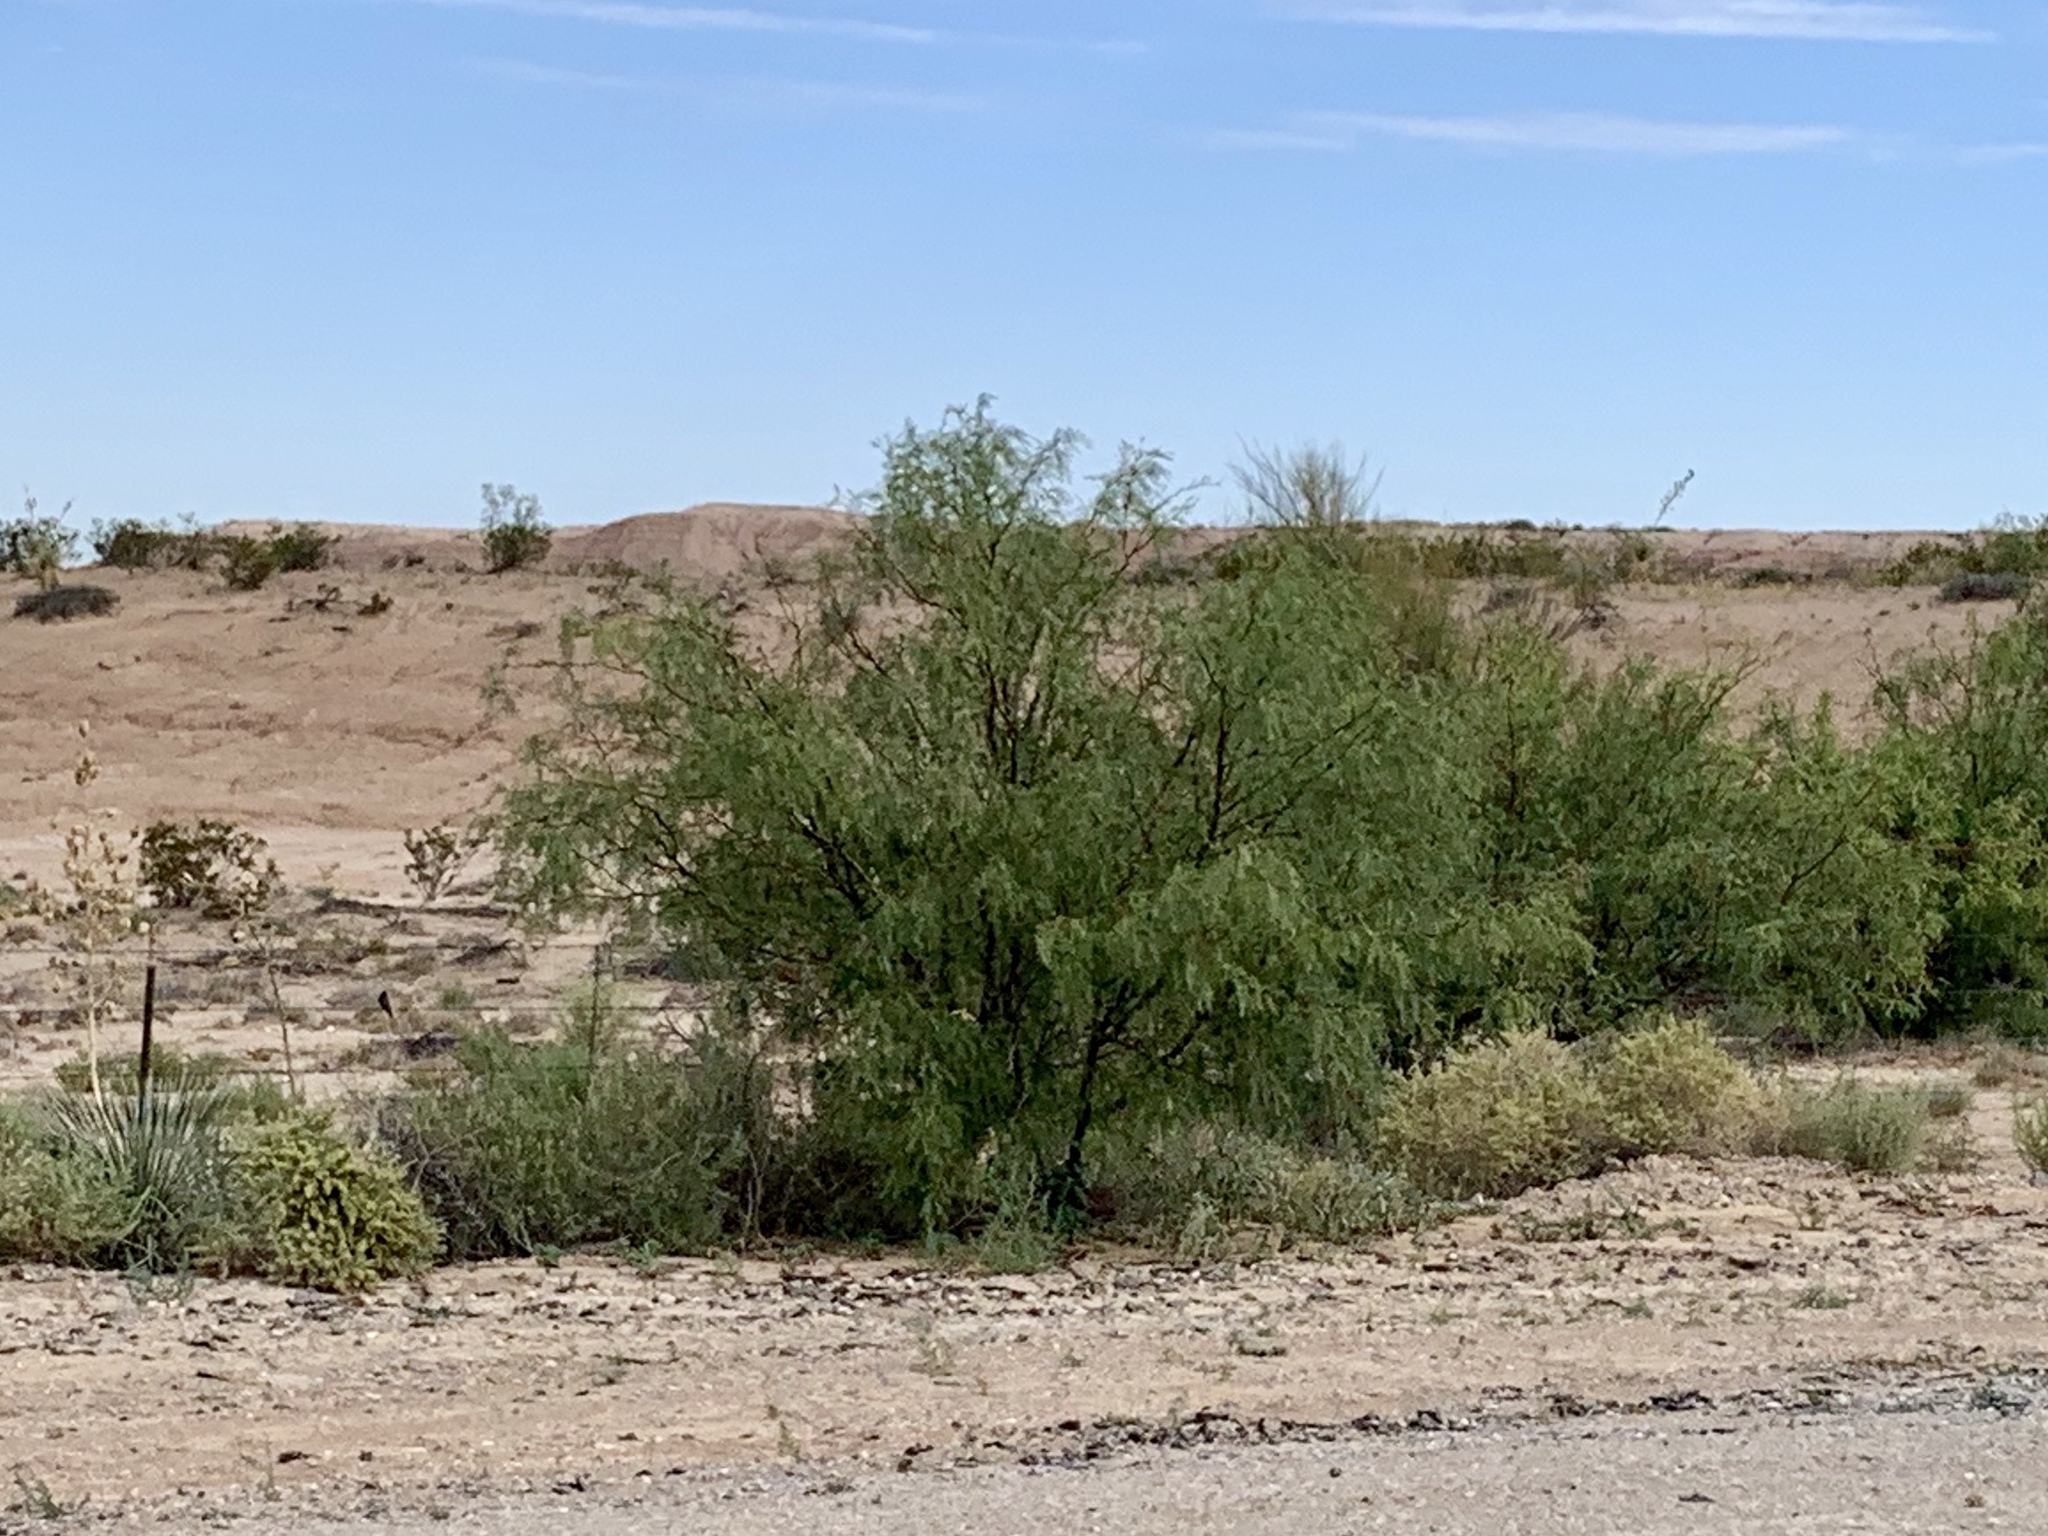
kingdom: Plantae
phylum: Tracheophyta
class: Magnoliopsida
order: Fabales
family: Fabaceae
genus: Prosopis
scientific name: Prosopis glandulosa
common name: Honey mesquite
